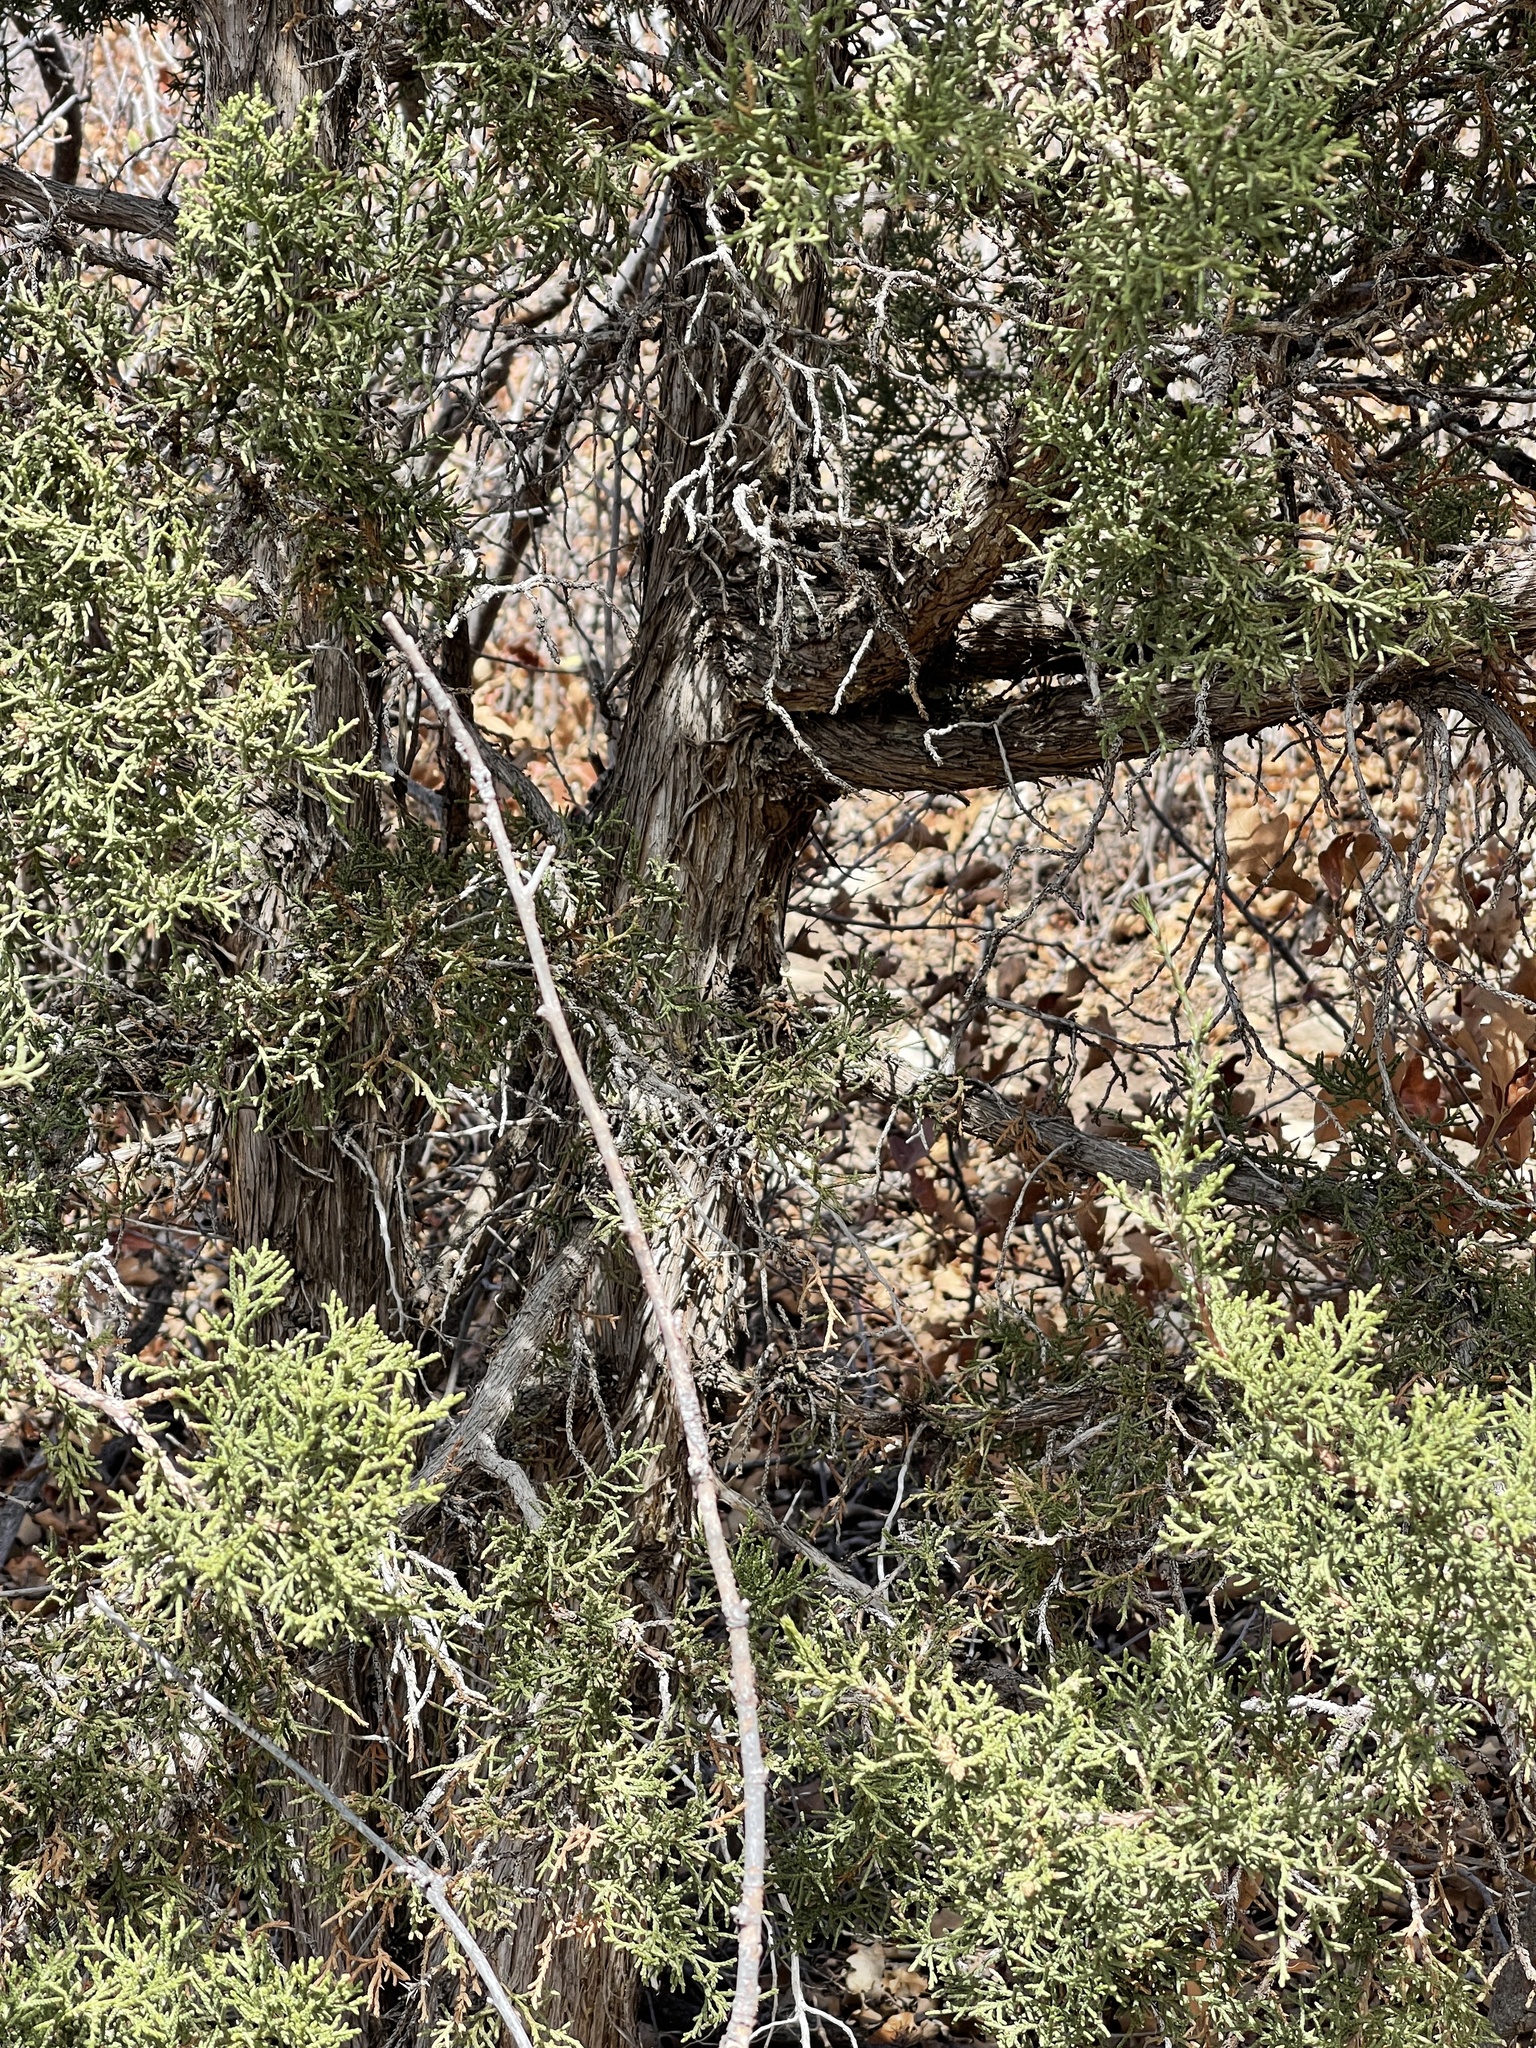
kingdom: Plantae
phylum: Tracheophyta
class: Pinopsida
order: Pinales
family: Cupressaceae
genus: Juniperus
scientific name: Juniperus monosperma
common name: One-seed juniper
